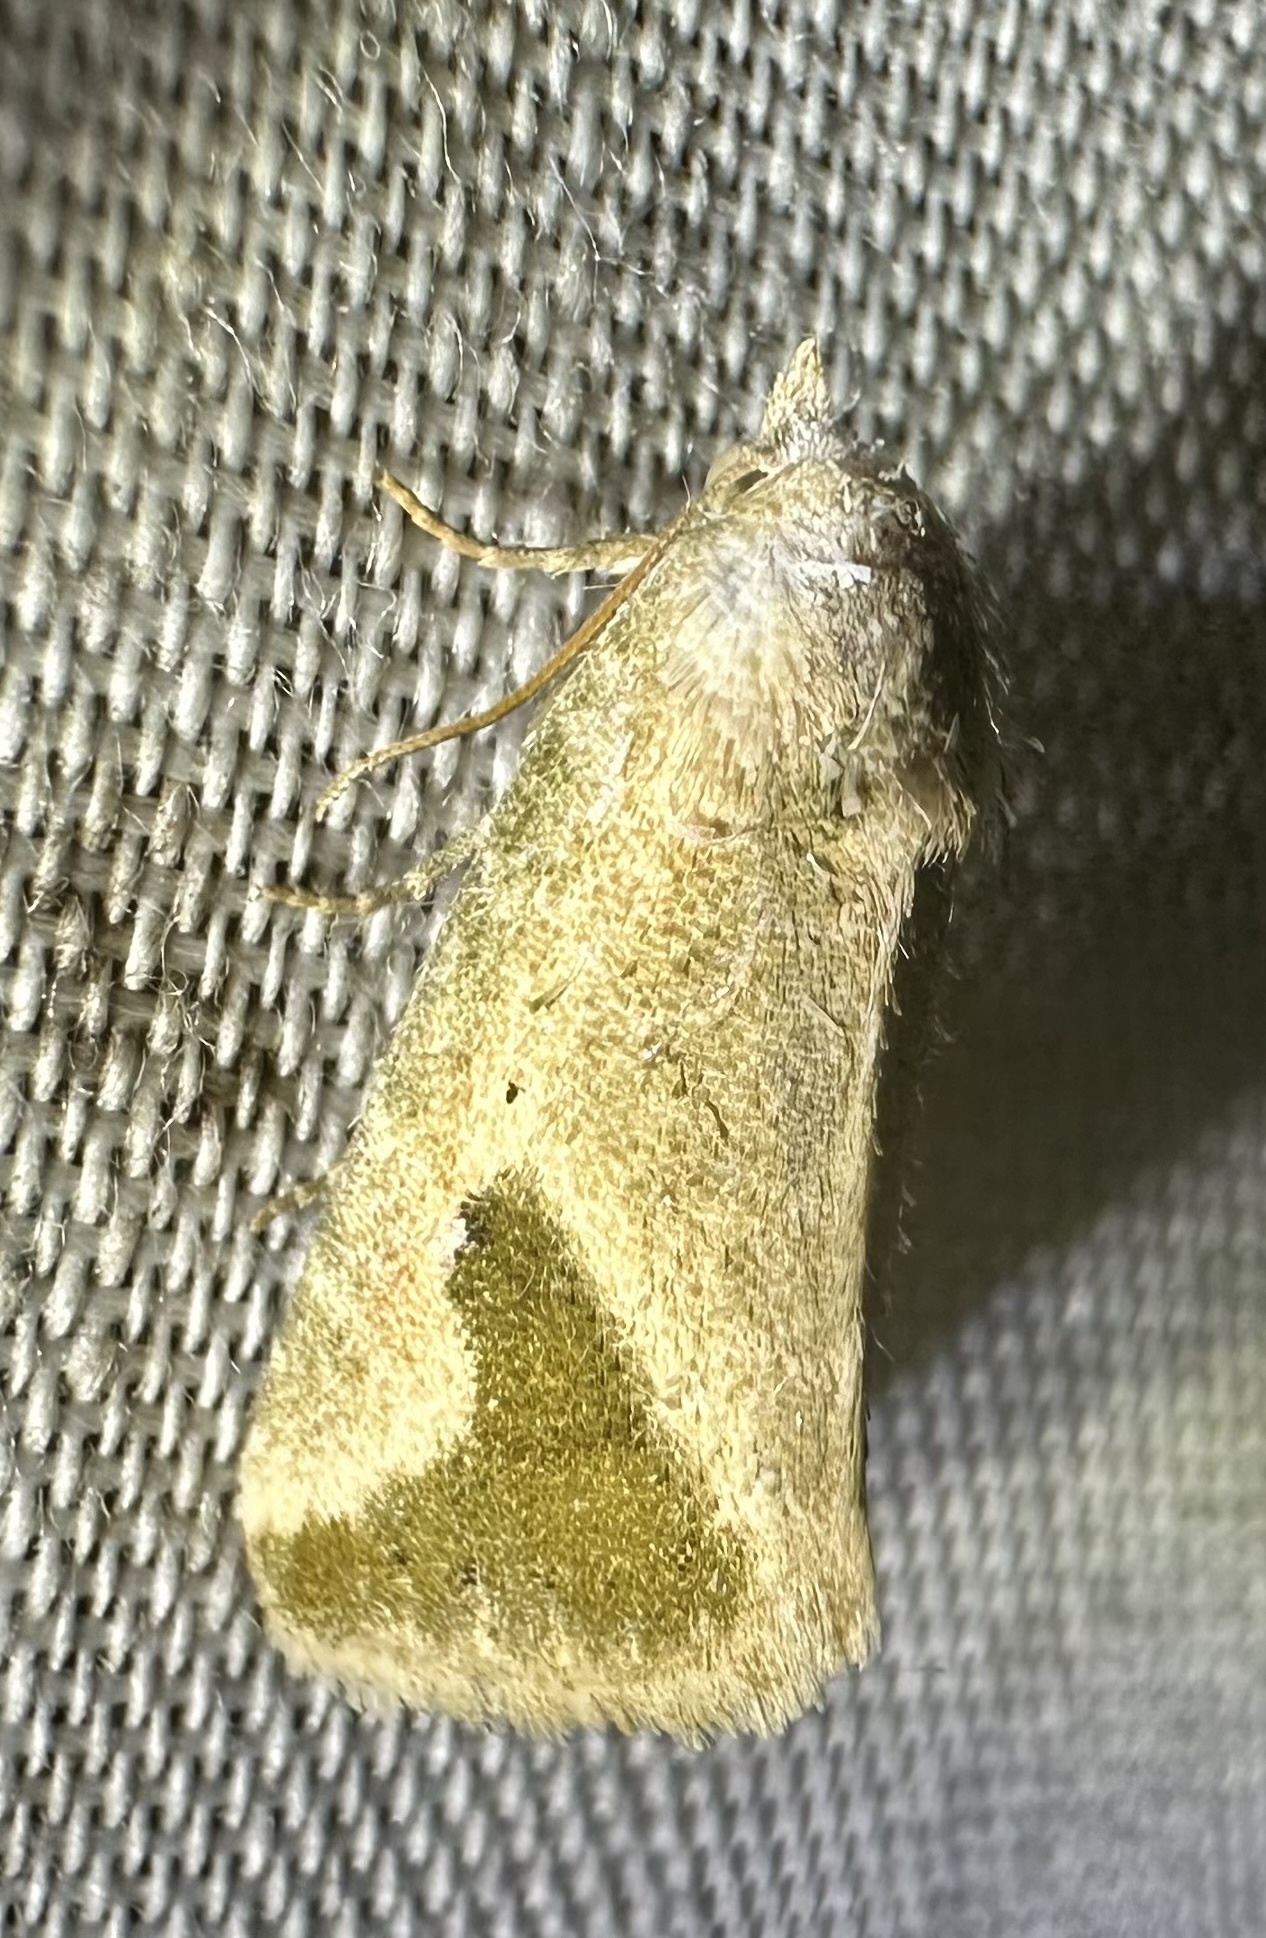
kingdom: Animalia
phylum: Arthropoda
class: Insecta
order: Lepidoptera
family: Noctuidae
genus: Autoba
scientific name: Autoba admota
